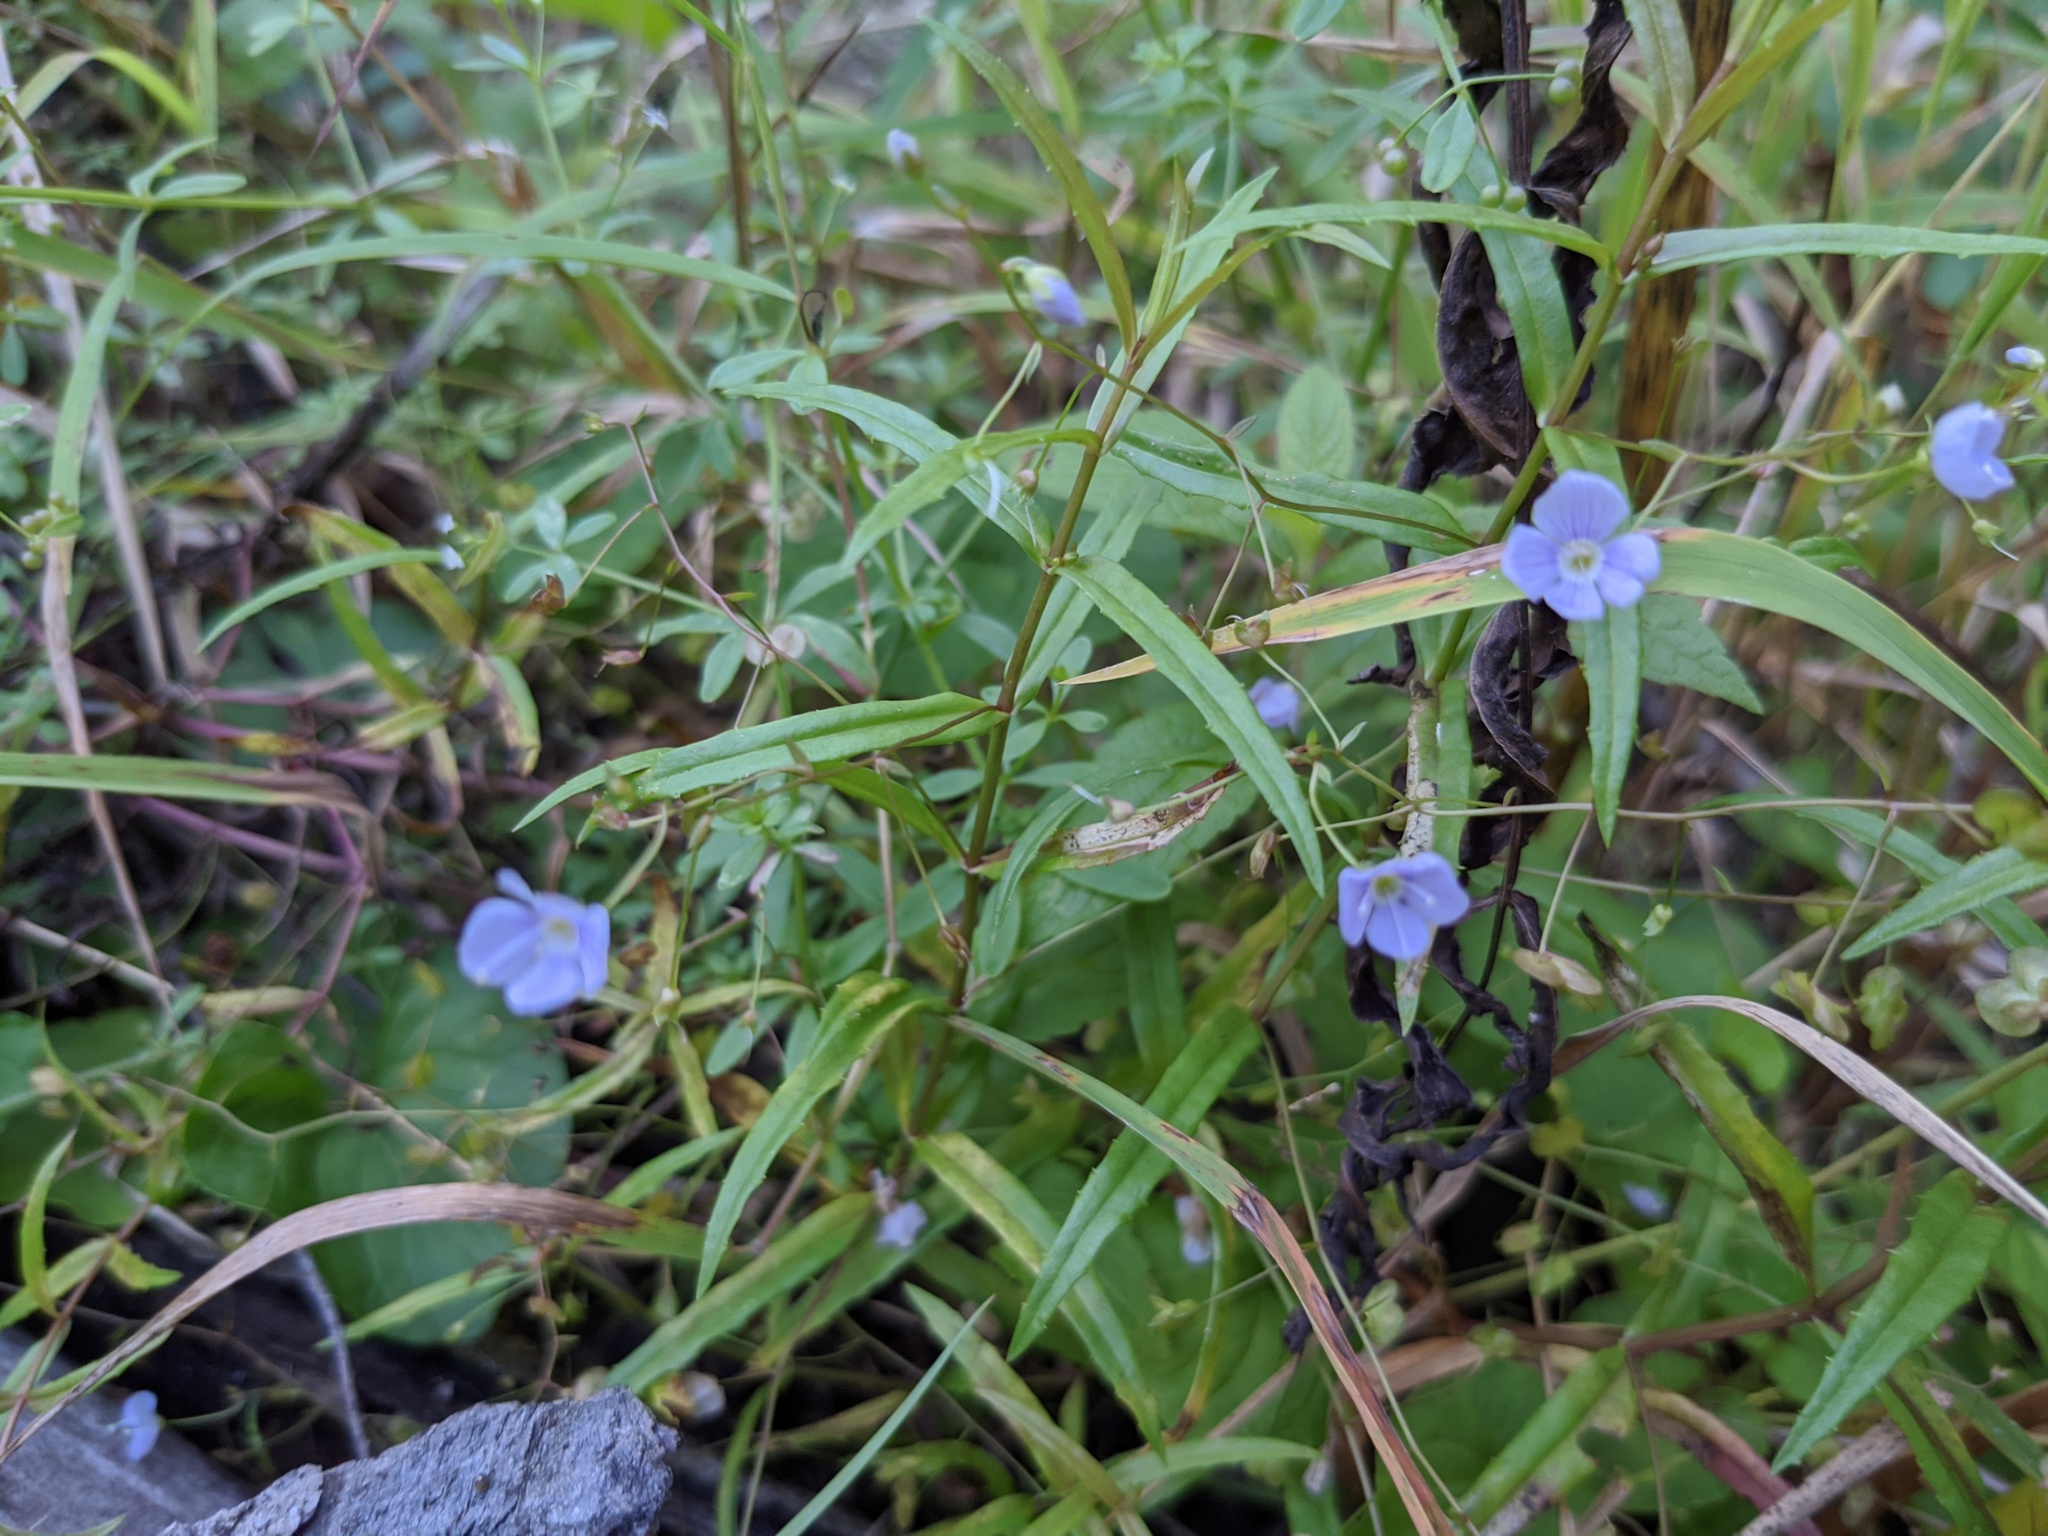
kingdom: Plantae
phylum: Tracheophyta
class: Magnoliopsida
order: Lamiales
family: Plantaginaceae
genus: Veronica
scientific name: Veronica scutellata
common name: Marsh speedwell
